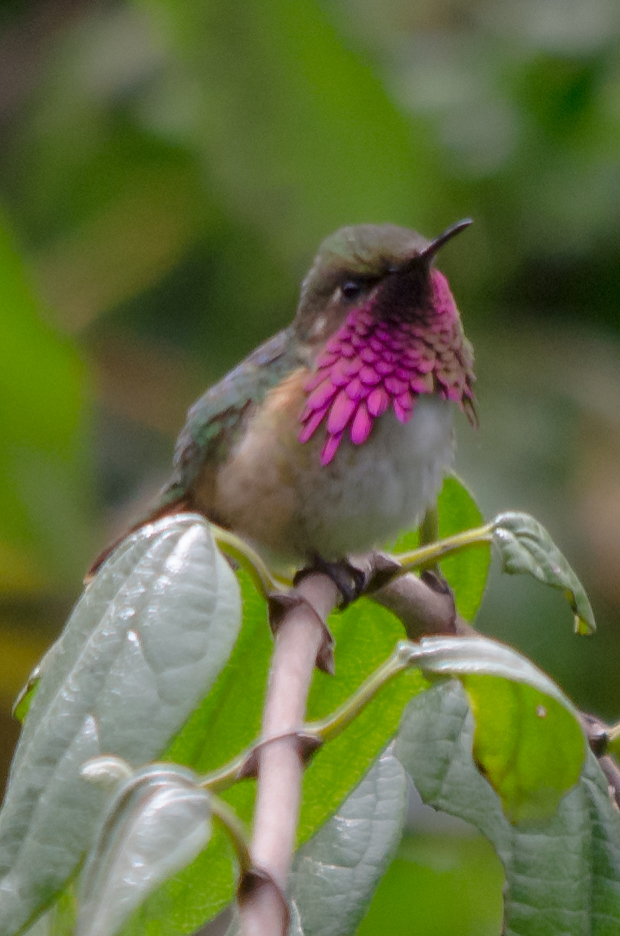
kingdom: Animalia
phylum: Chordata
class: Aves
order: Apodiformes
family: Trochilidae
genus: Selasphorus
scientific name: Selasphorus ellioti
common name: Wine-throated hummingbird
